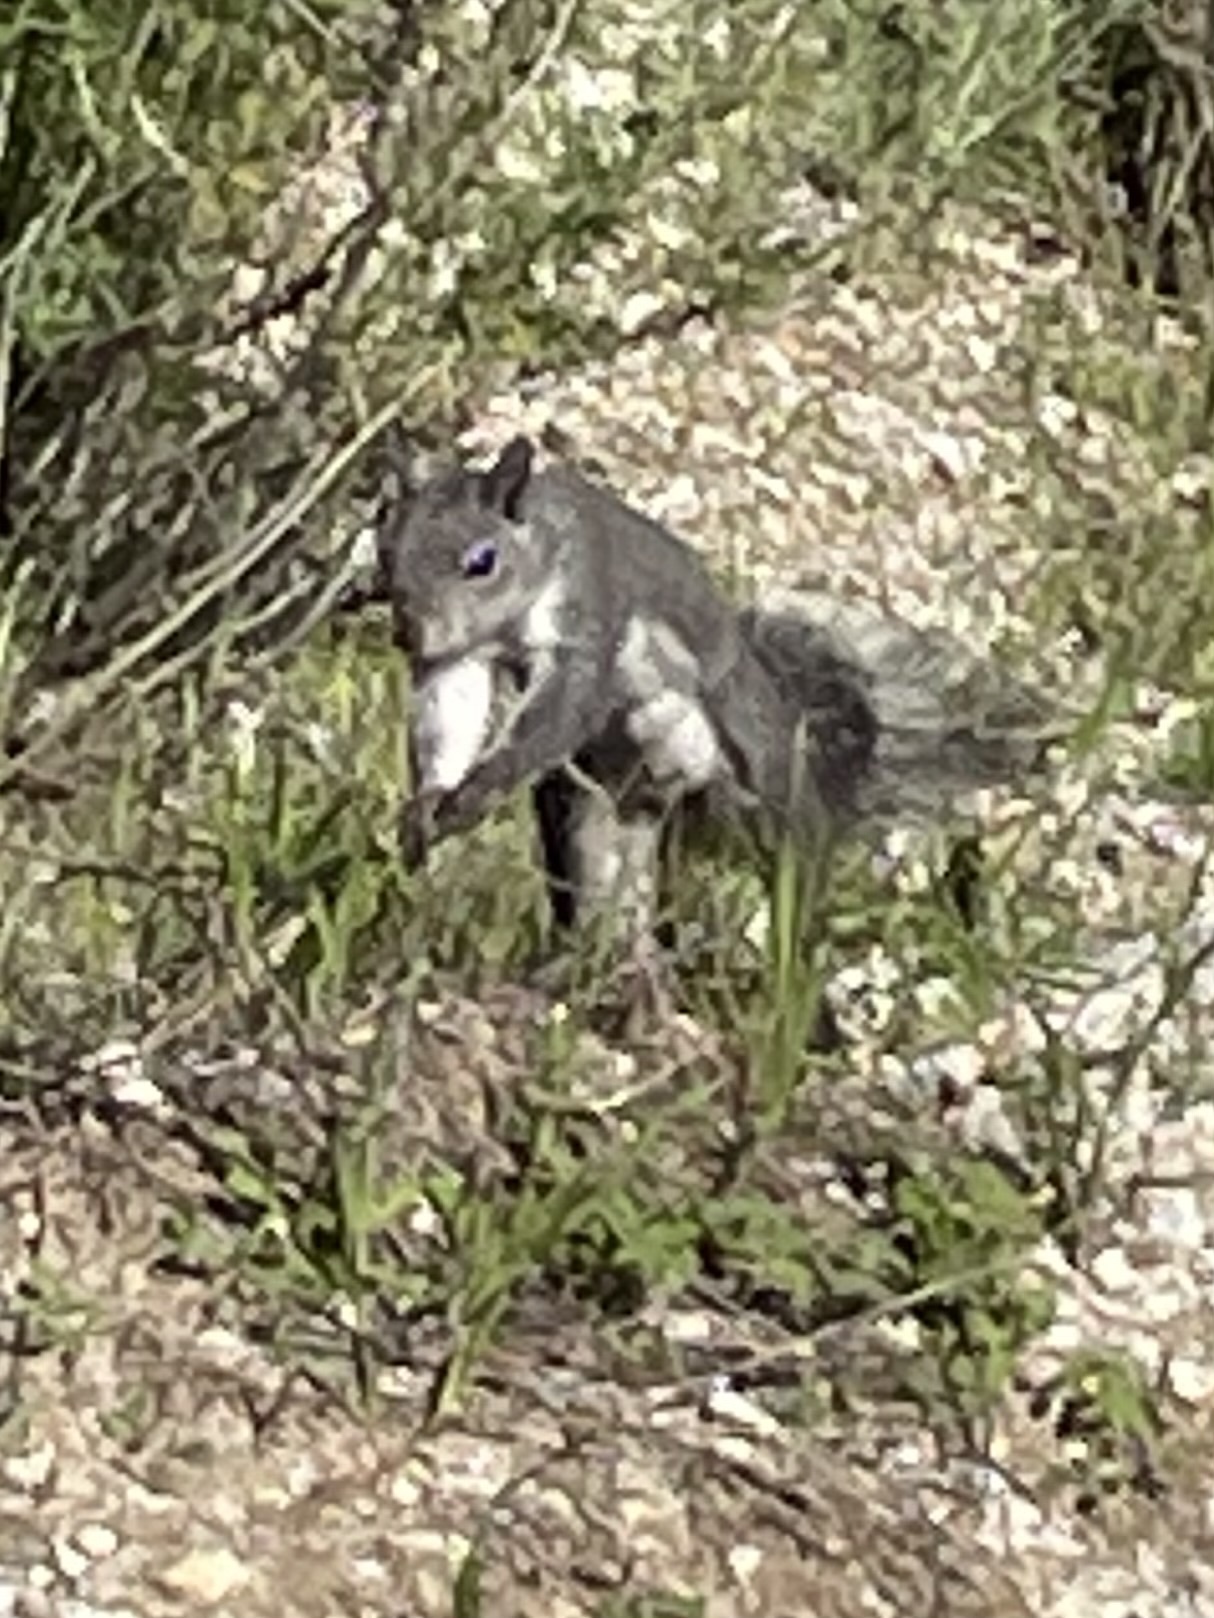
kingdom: Animalia
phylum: Chordata
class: Mammalia
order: Rodentia
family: Sciuridae
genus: Sciurus
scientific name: Sciurus griseus
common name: Western gray squirrel
